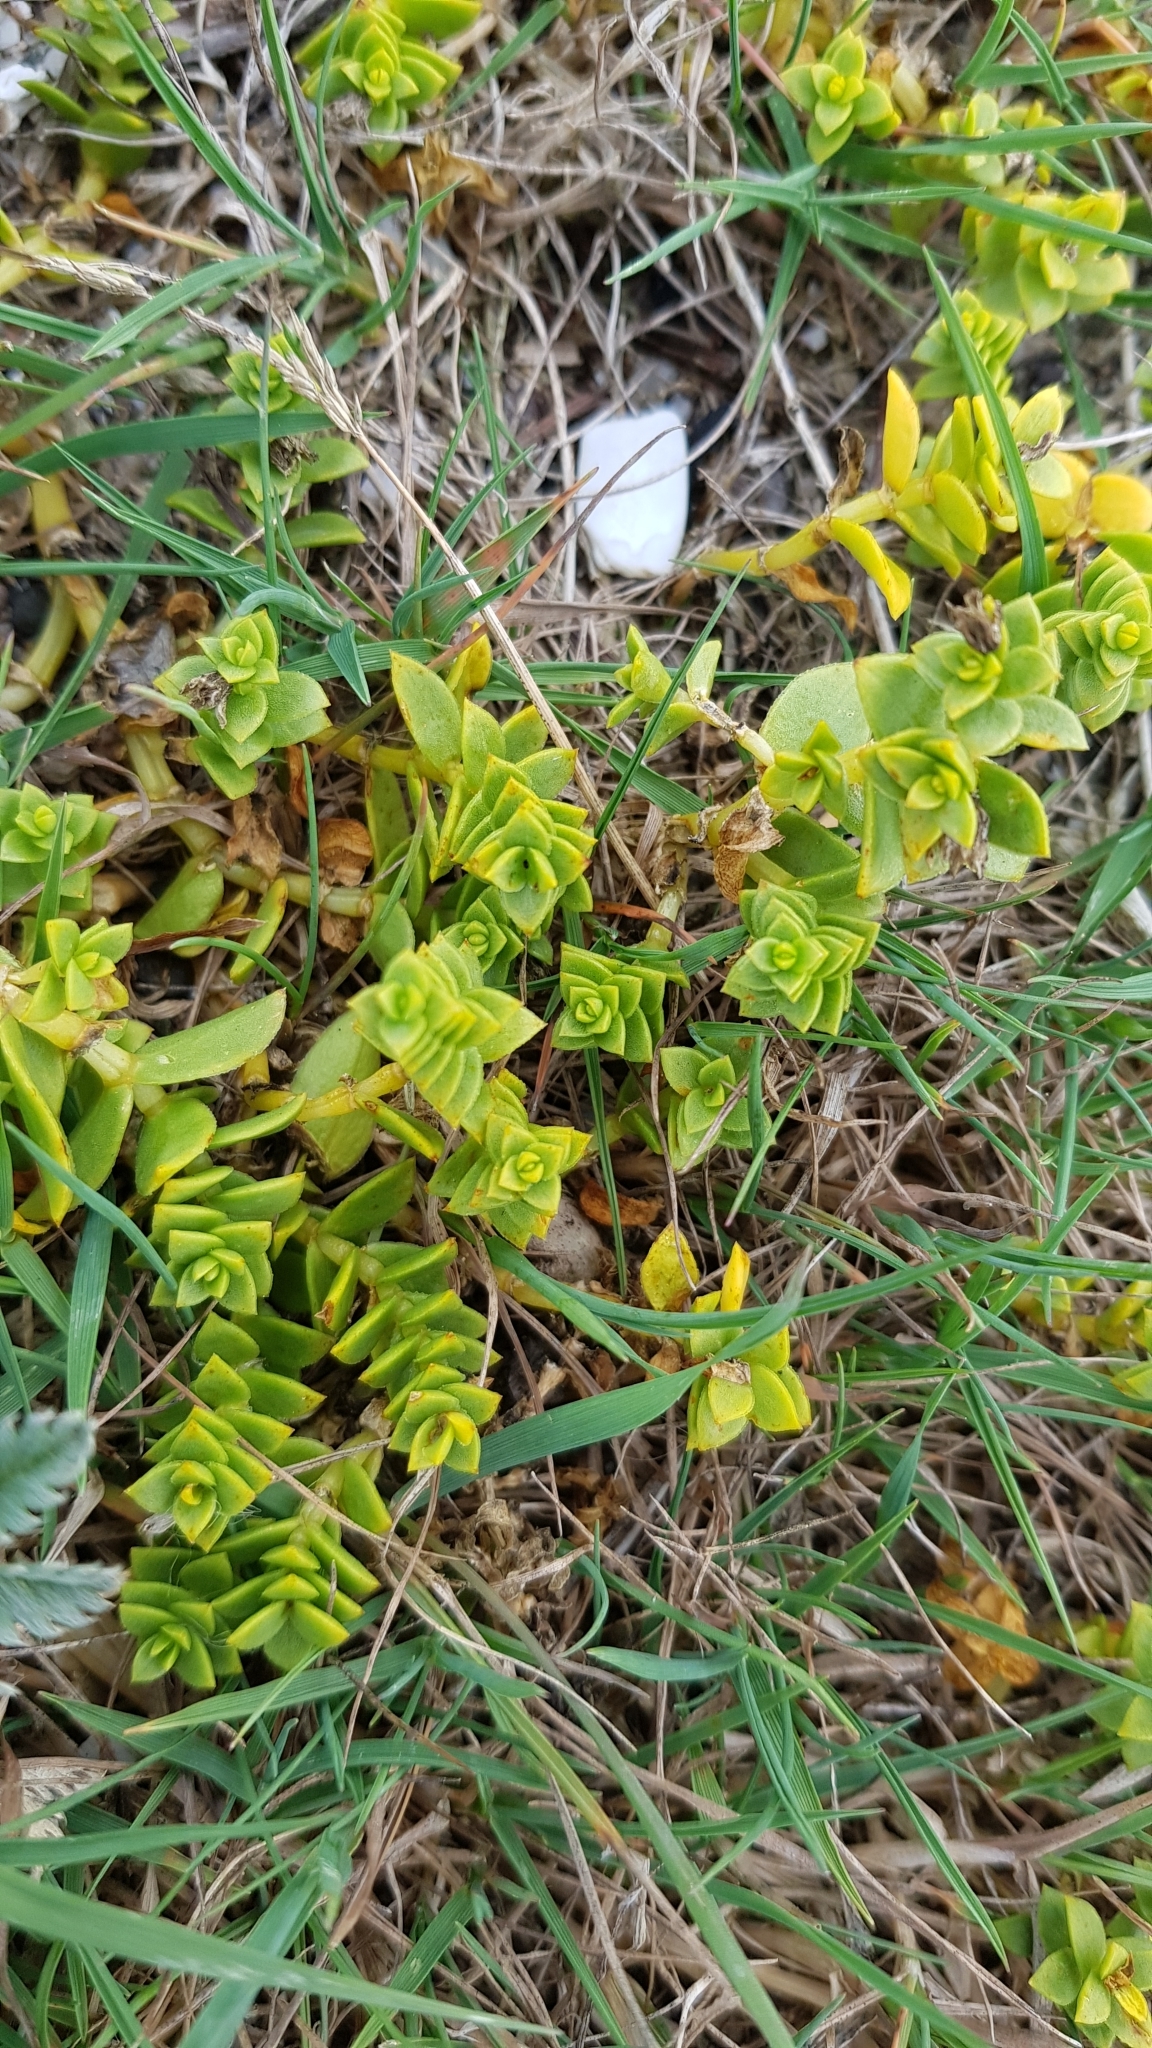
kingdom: Plantae
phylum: Tracheophyta
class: Magnoliopsida
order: Caryophyllales
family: Caryophyllaceae
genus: Honckenya
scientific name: Honckenya peploides
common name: Sea sandwort
